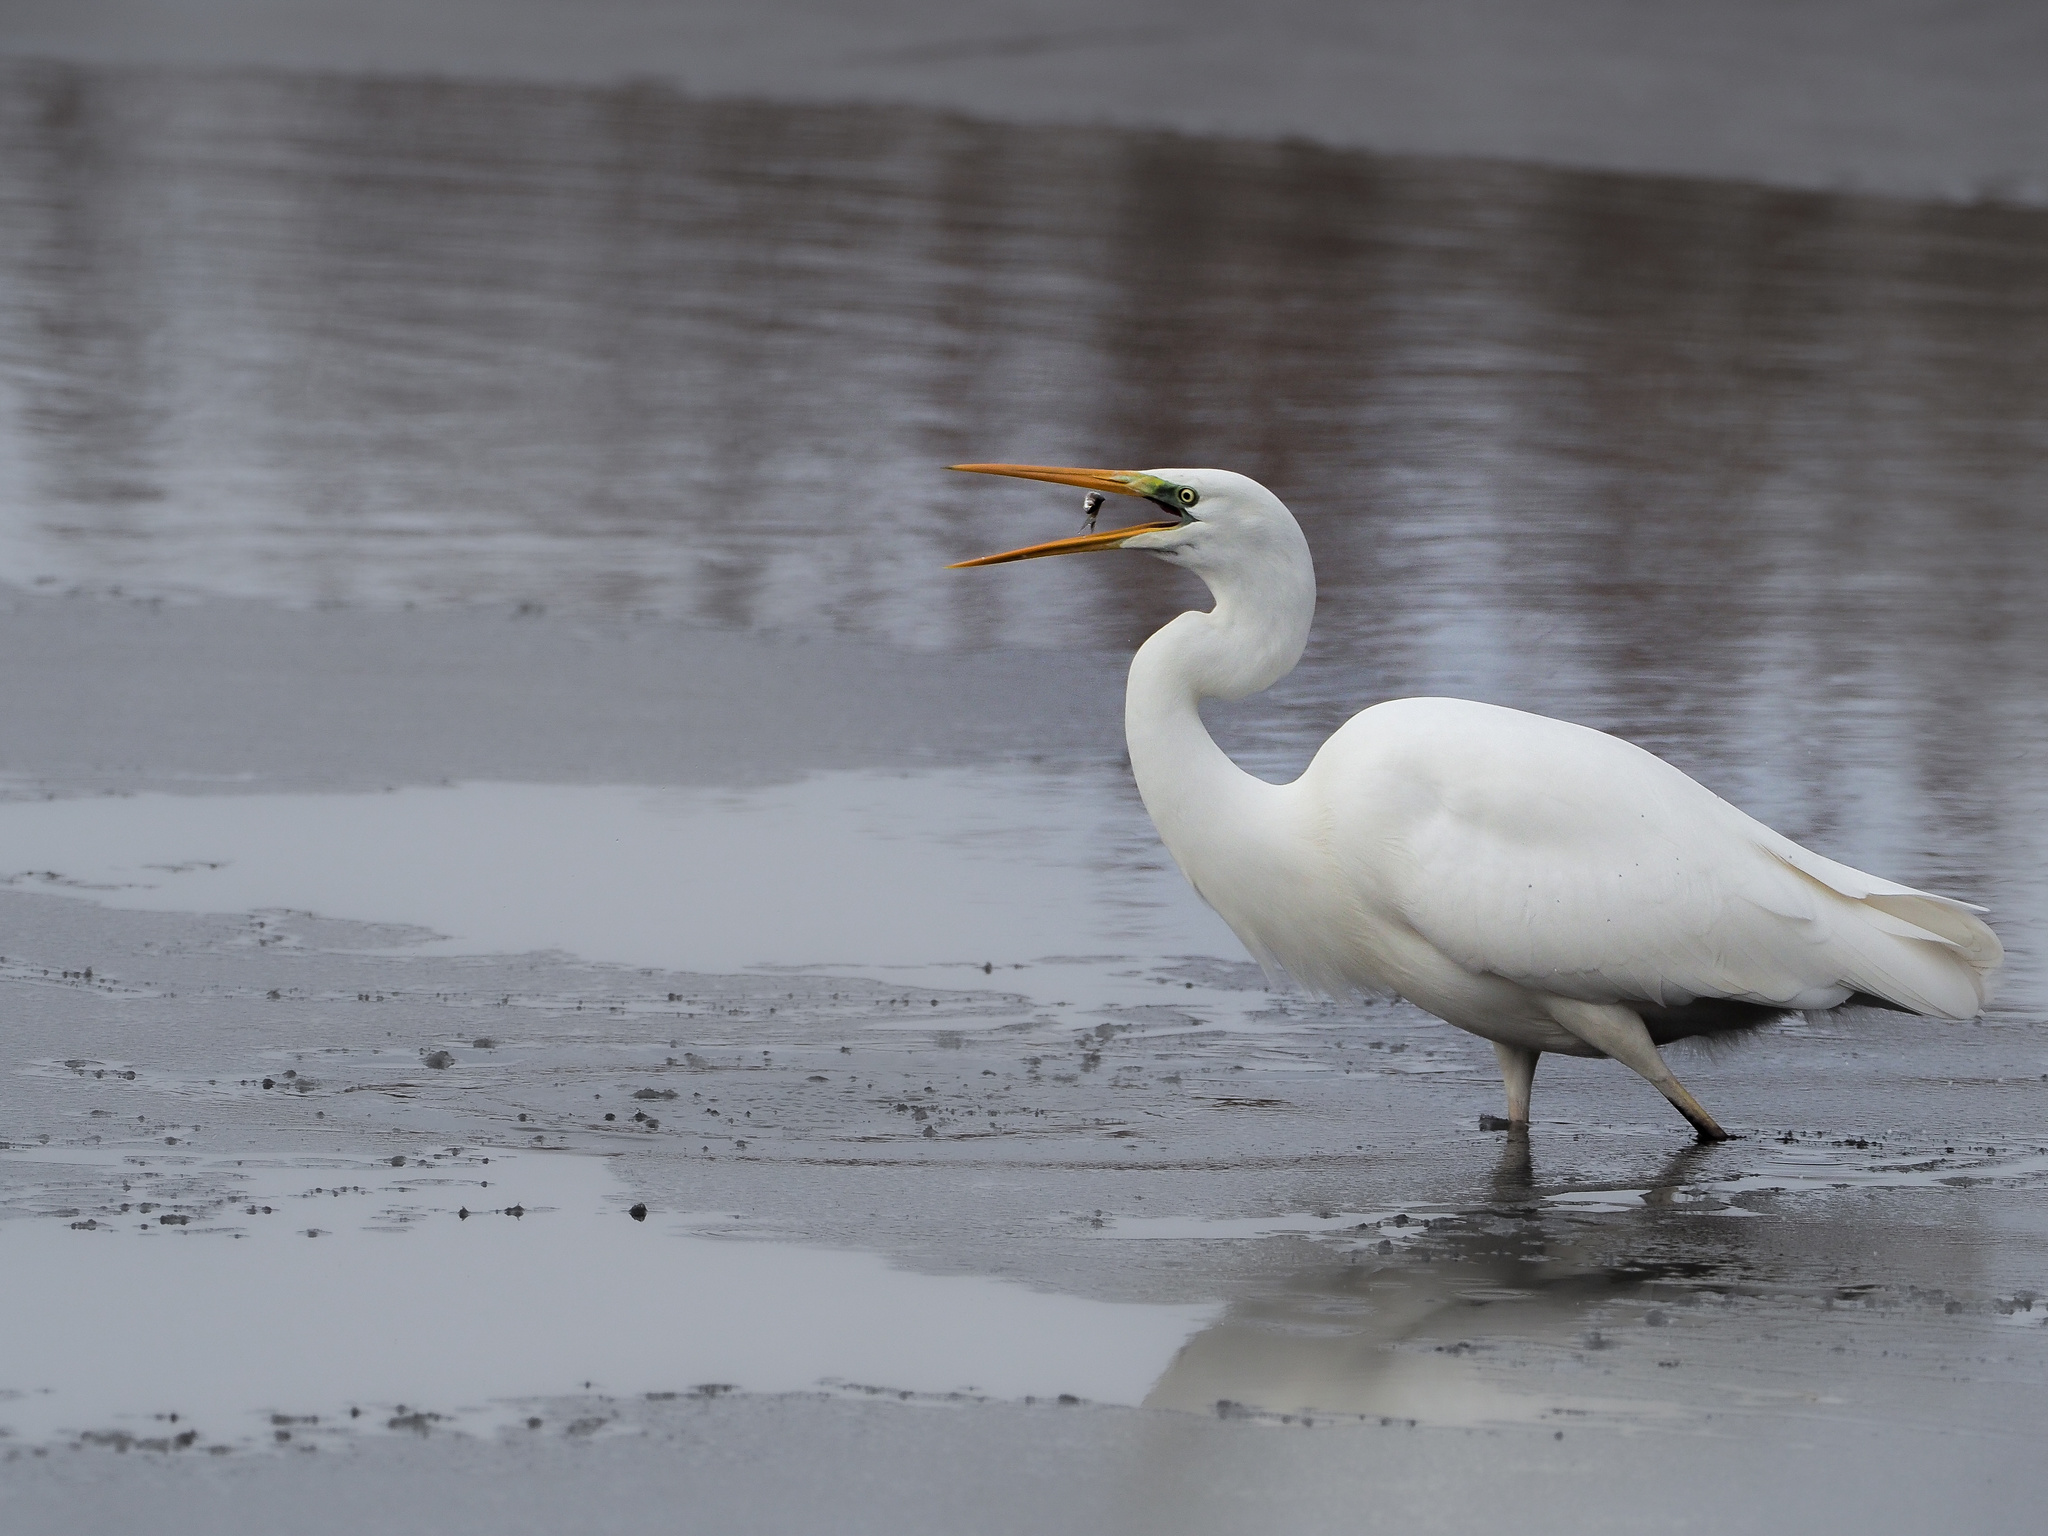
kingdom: Animalia
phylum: Chordata
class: Aves
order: Pelecaniformes
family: Ardeidae
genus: Ardea
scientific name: Ardea alba
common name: Great egret
